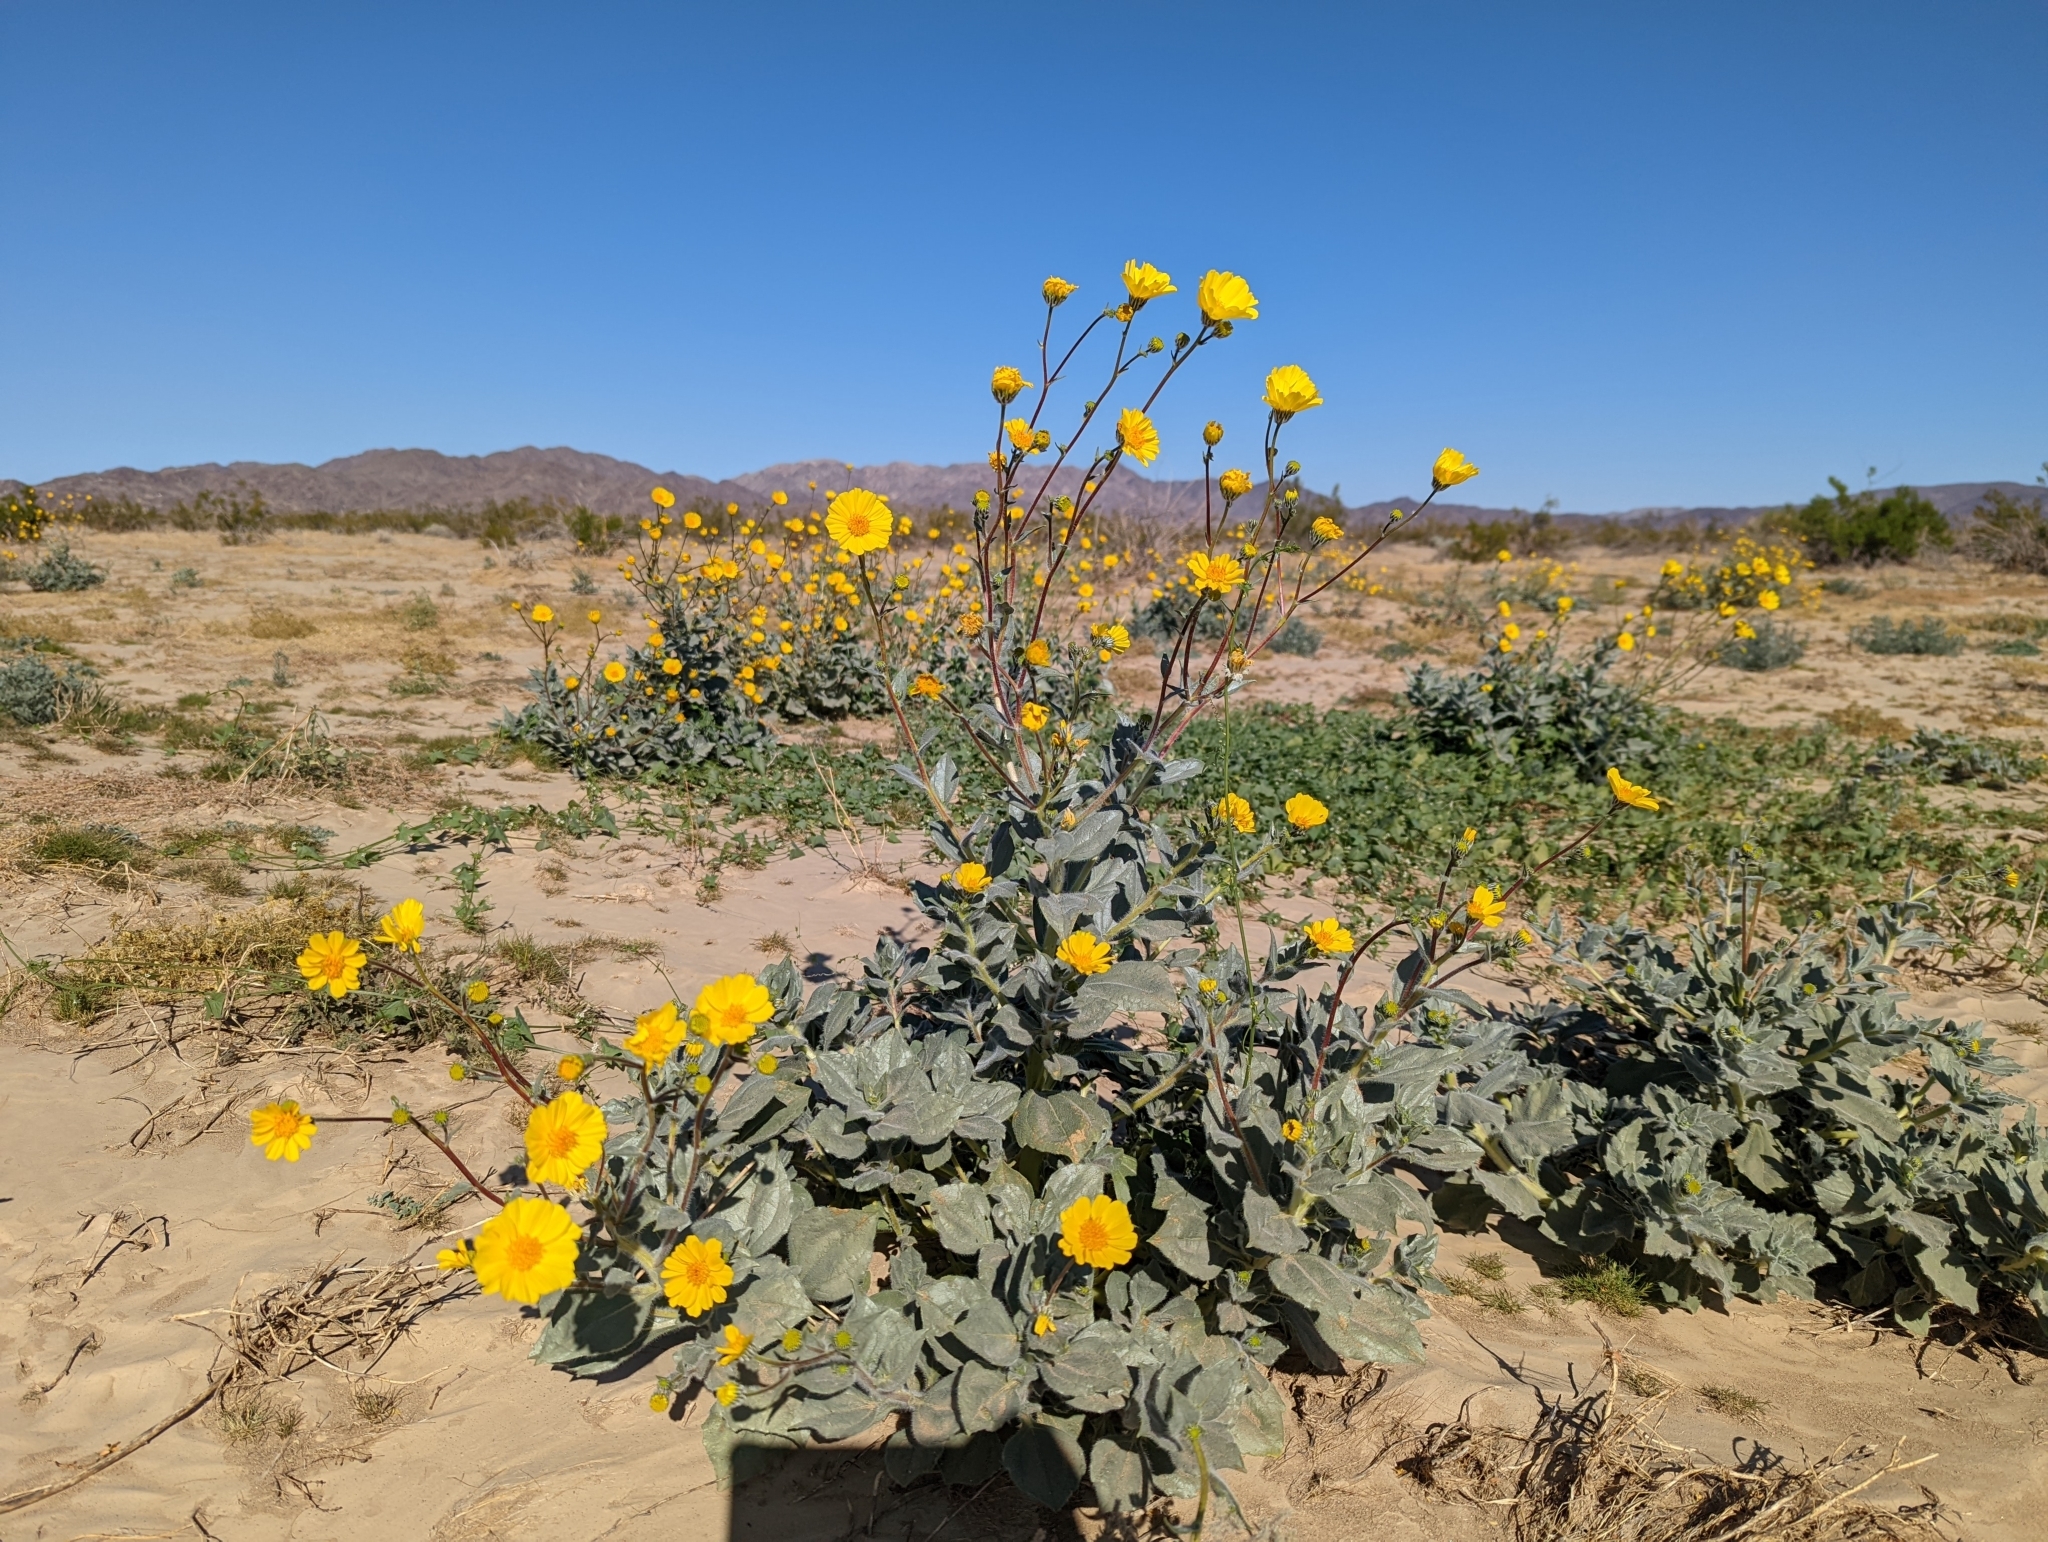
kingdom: Plantae
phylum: Tracheophyta
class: Magnoliopsida
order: Asterales
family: Asteraceae
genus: Geraea
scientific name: Geraea canescens
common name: Desert-gold
